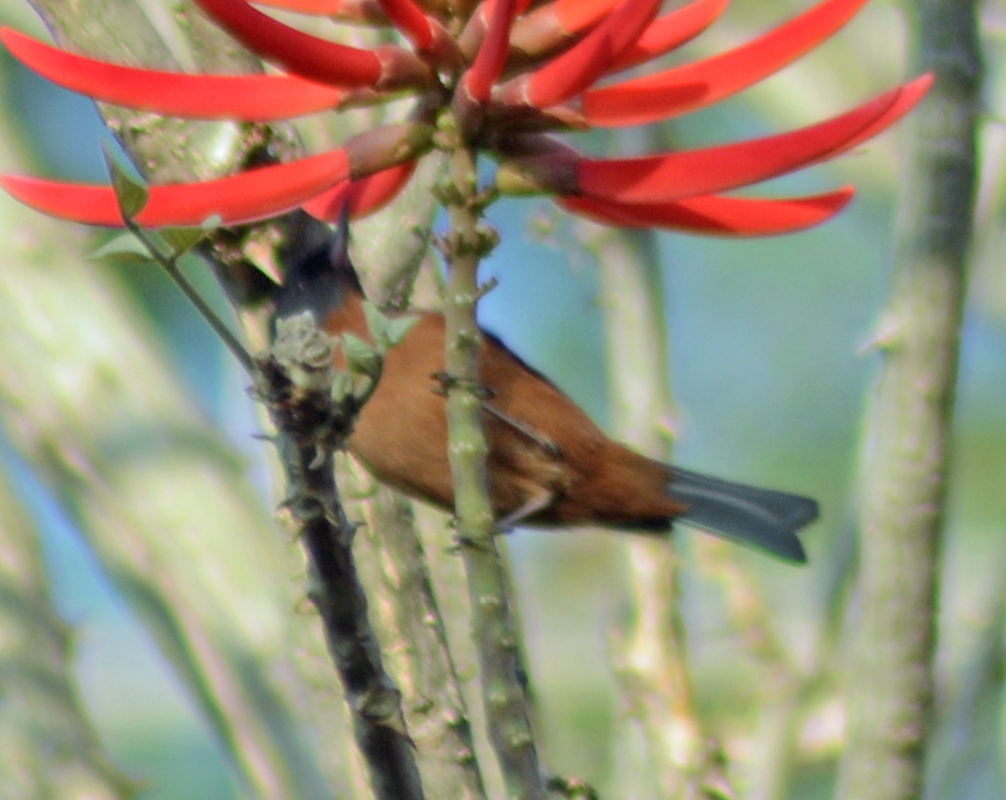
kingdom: Animalia
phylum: Chordata
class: Aves
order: Passeriformes
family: Thraupidae
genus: Diglossa
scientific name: Diglossa baritula
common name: Cinnamon-bellied flowerpiercer
